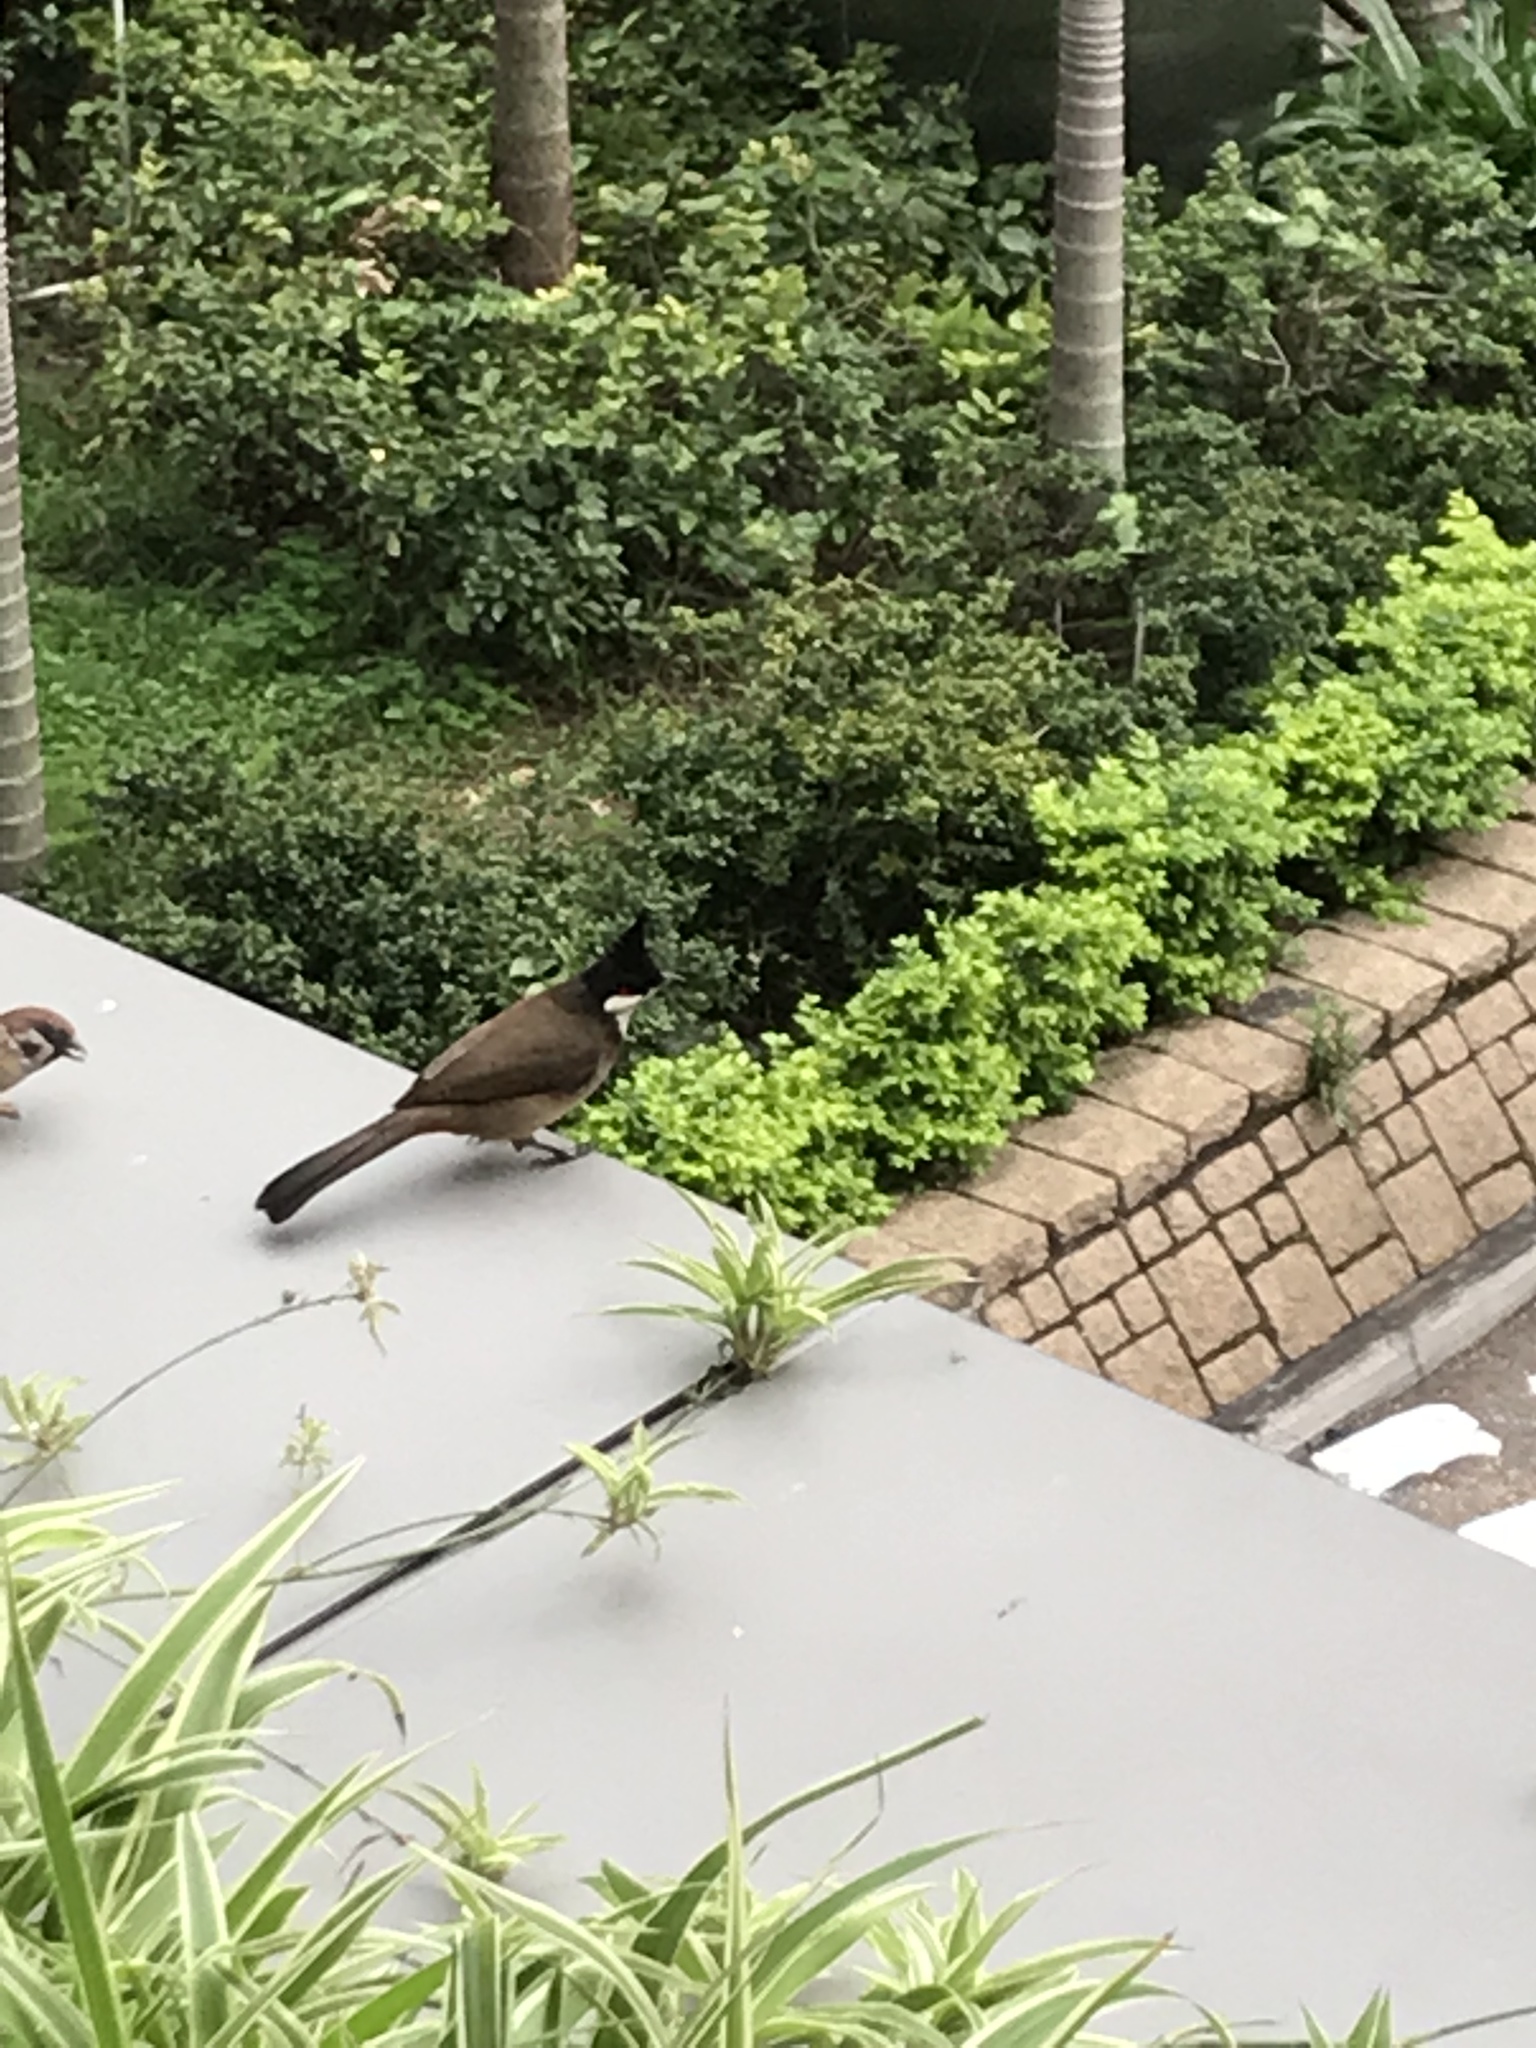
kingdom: Animalia
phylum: Chordata
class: Aves
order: Passeriformes
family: Pycnonotidae
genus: Pycnonotus
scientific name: Pycnonotus jocosus
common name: Red-whiskered bulbul
